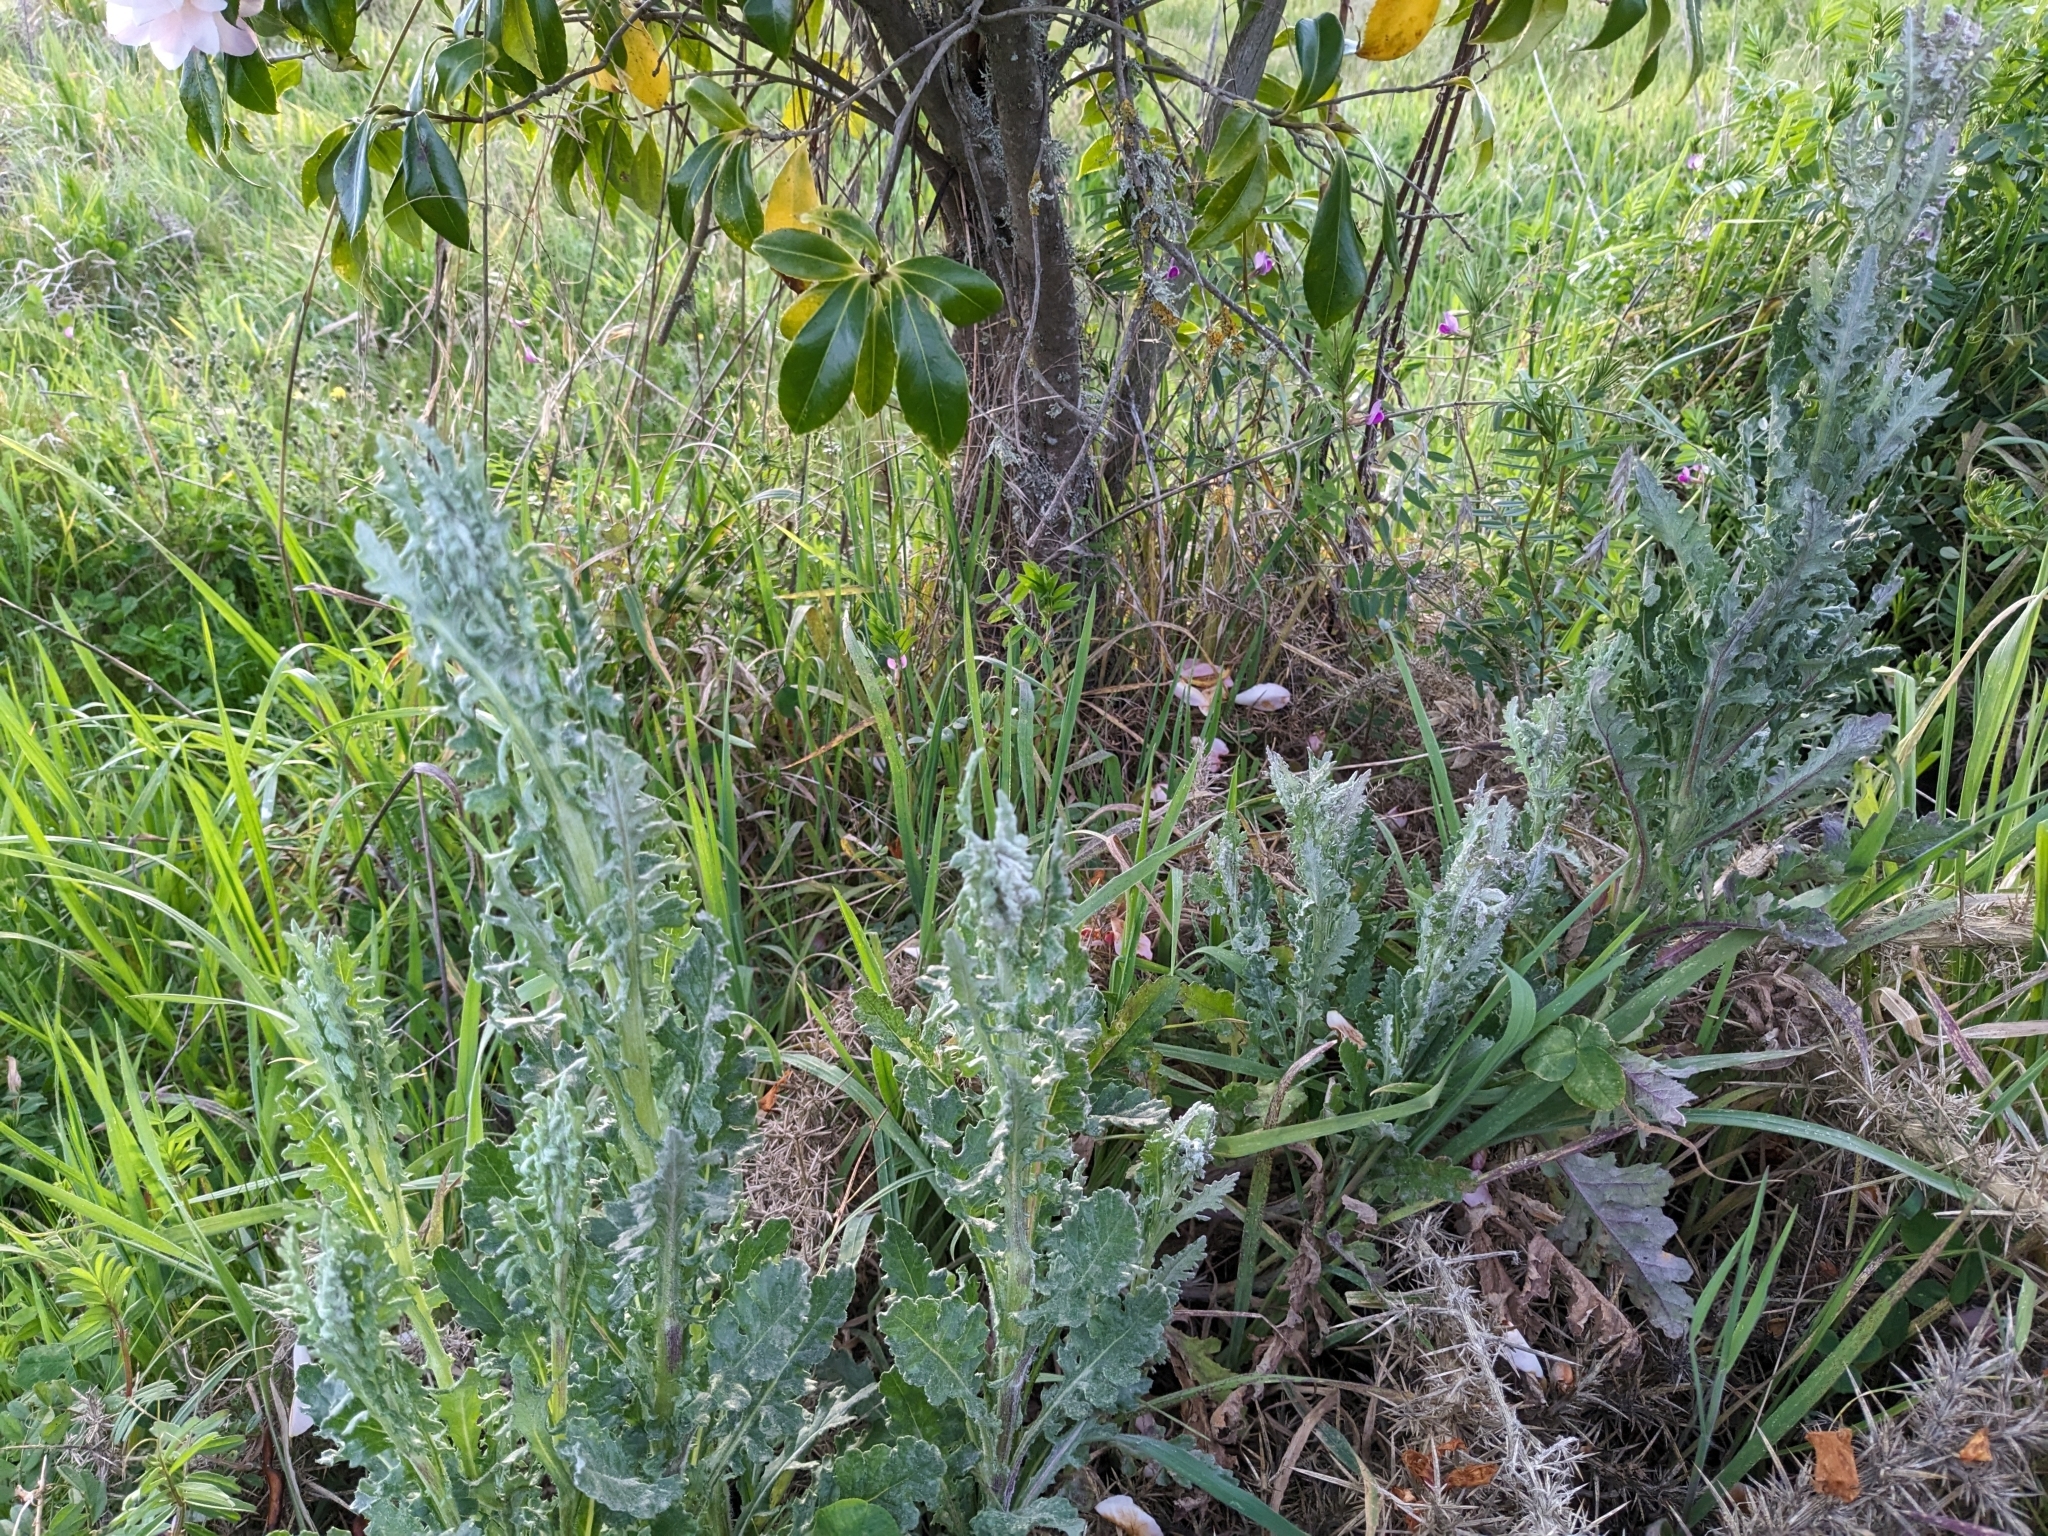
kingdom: Plantae
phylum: Tracheophyta
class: Magnoliopsida
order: Asterales
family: Asteraceae
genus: Senecio
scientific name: Senecio glomeratus
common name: Cutleaf burnweed
